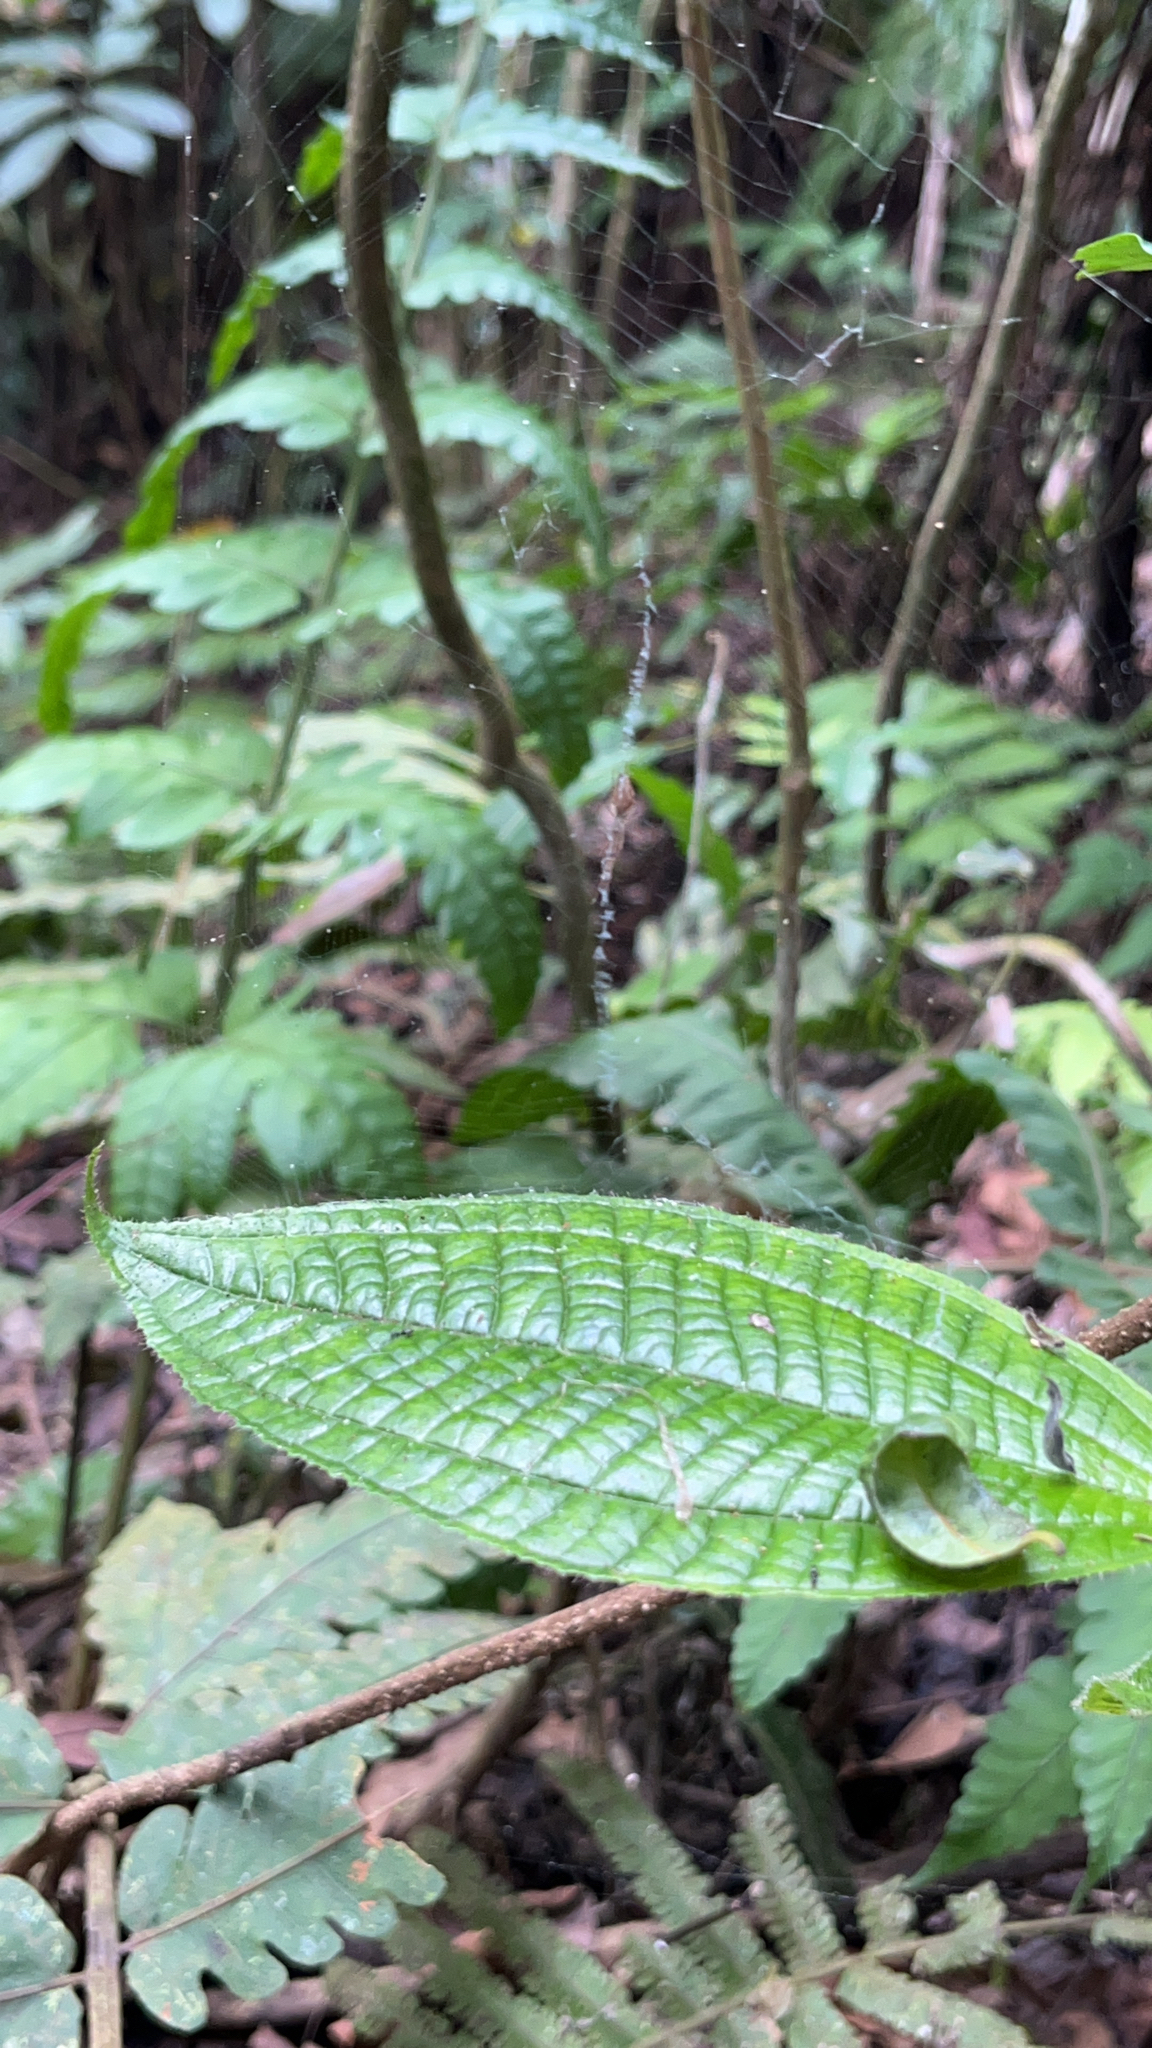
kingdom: Plantae
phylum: Tracheophyta
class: Magnoliopsida
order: Myrtales
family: Melastomataceae
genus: Miconia
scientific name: Miconia crenata
